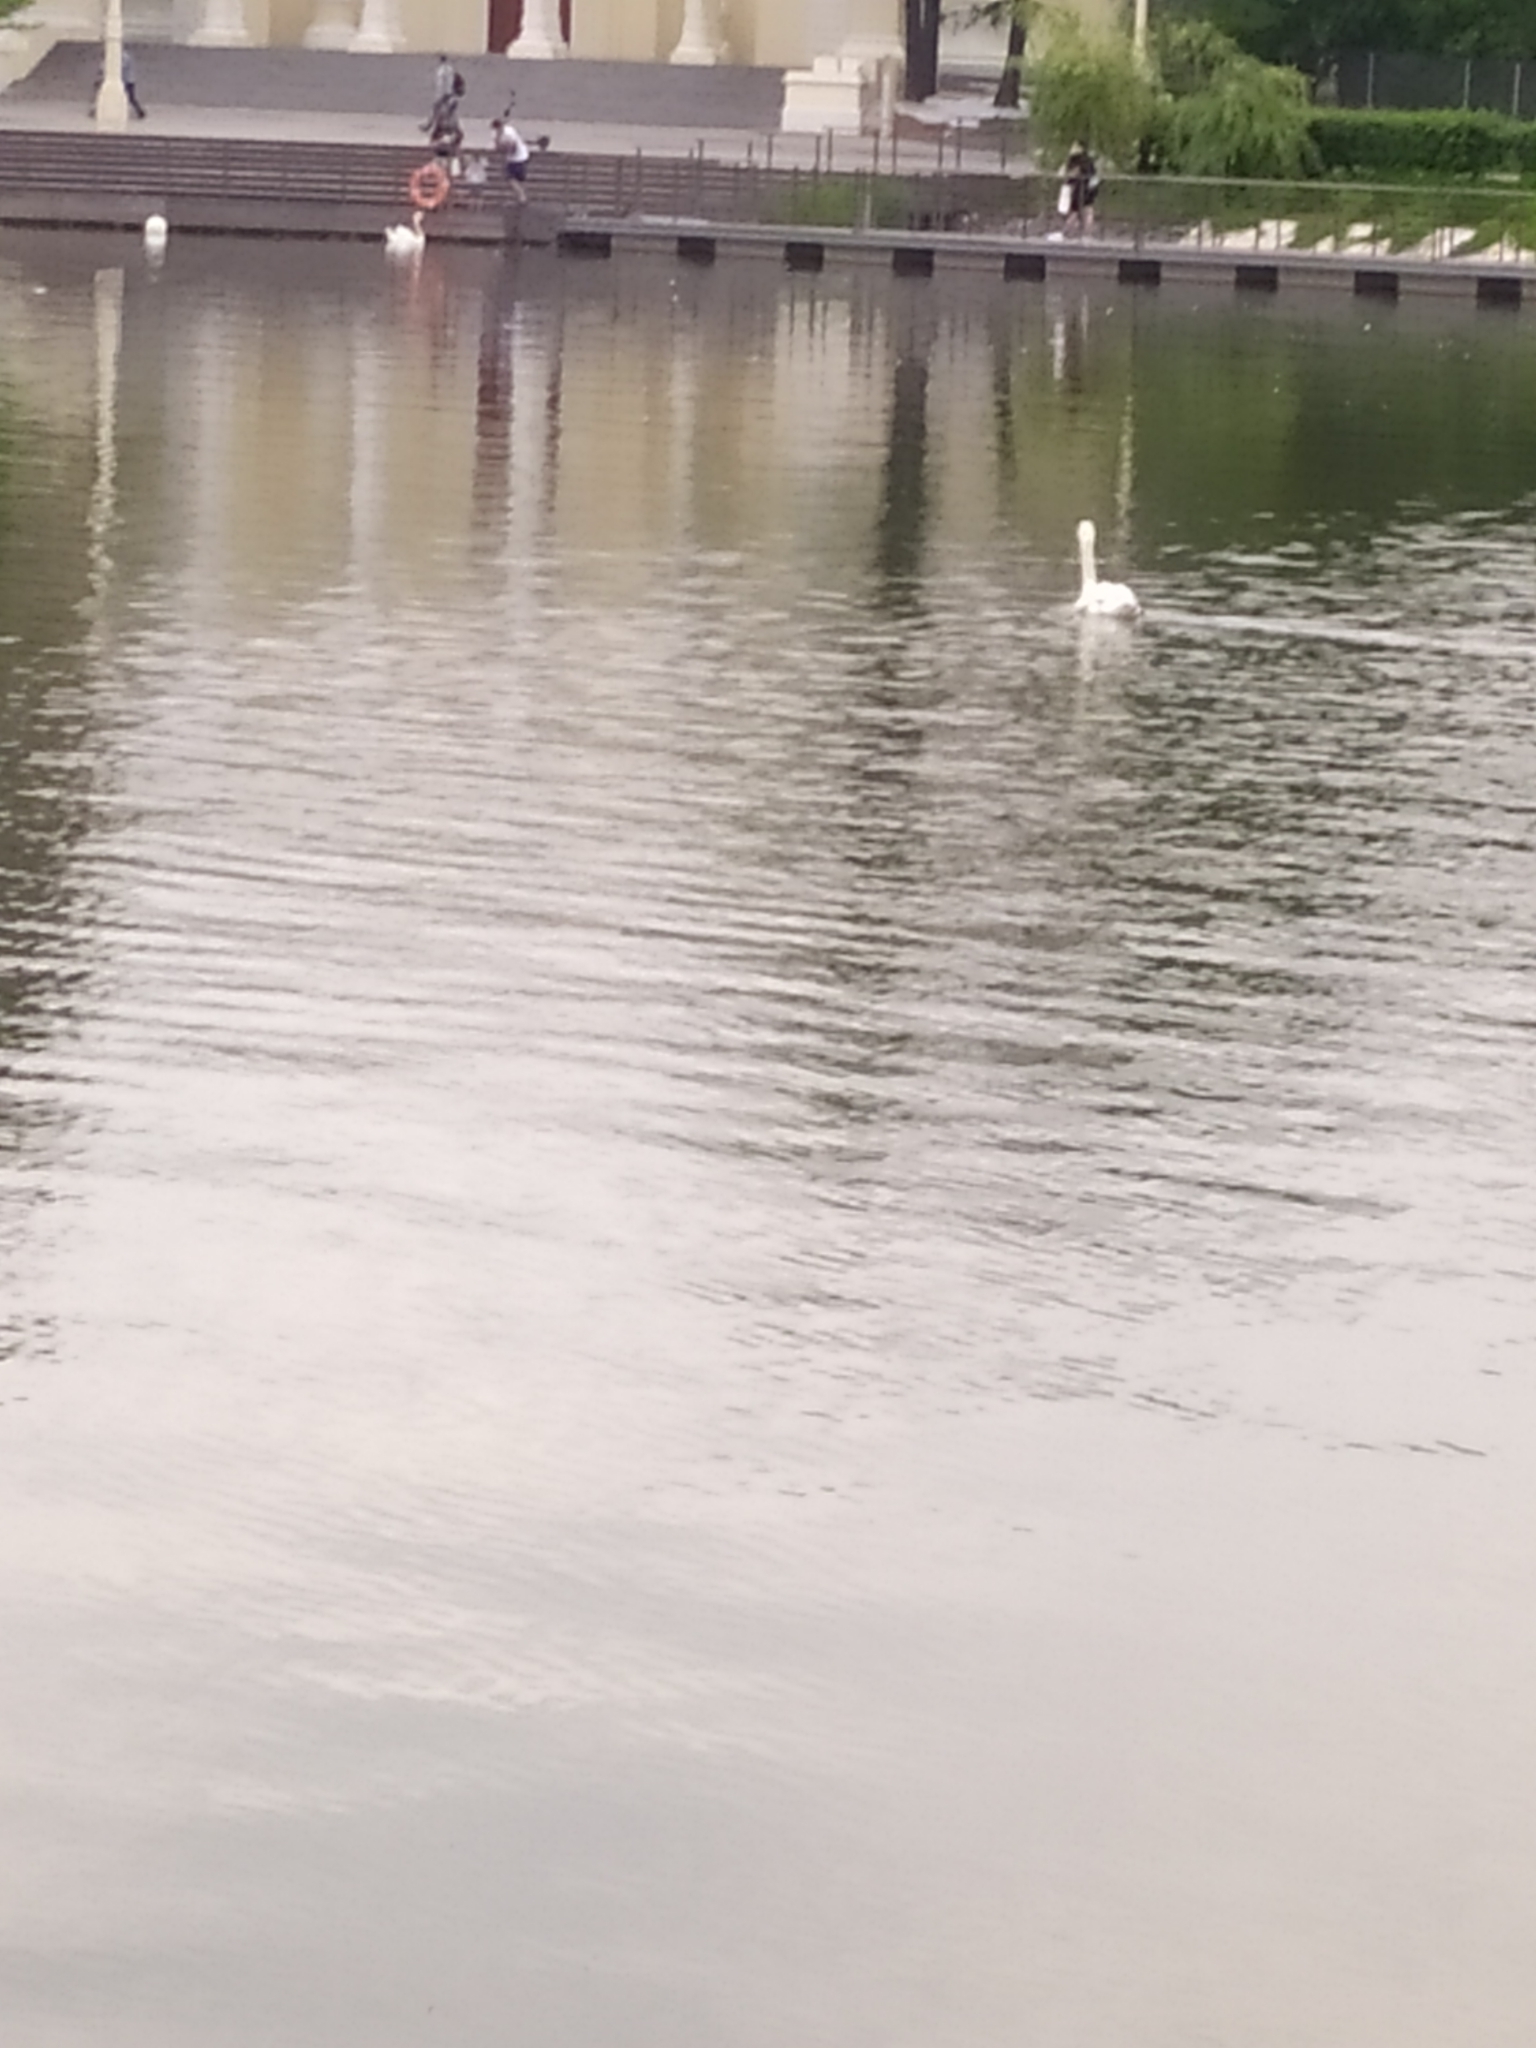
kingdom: Animalia
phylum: Chordata
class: Aves
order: Anseriformes
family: Anatidae
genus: Cygnus
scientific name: Cygnus olor
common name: Mute swan
